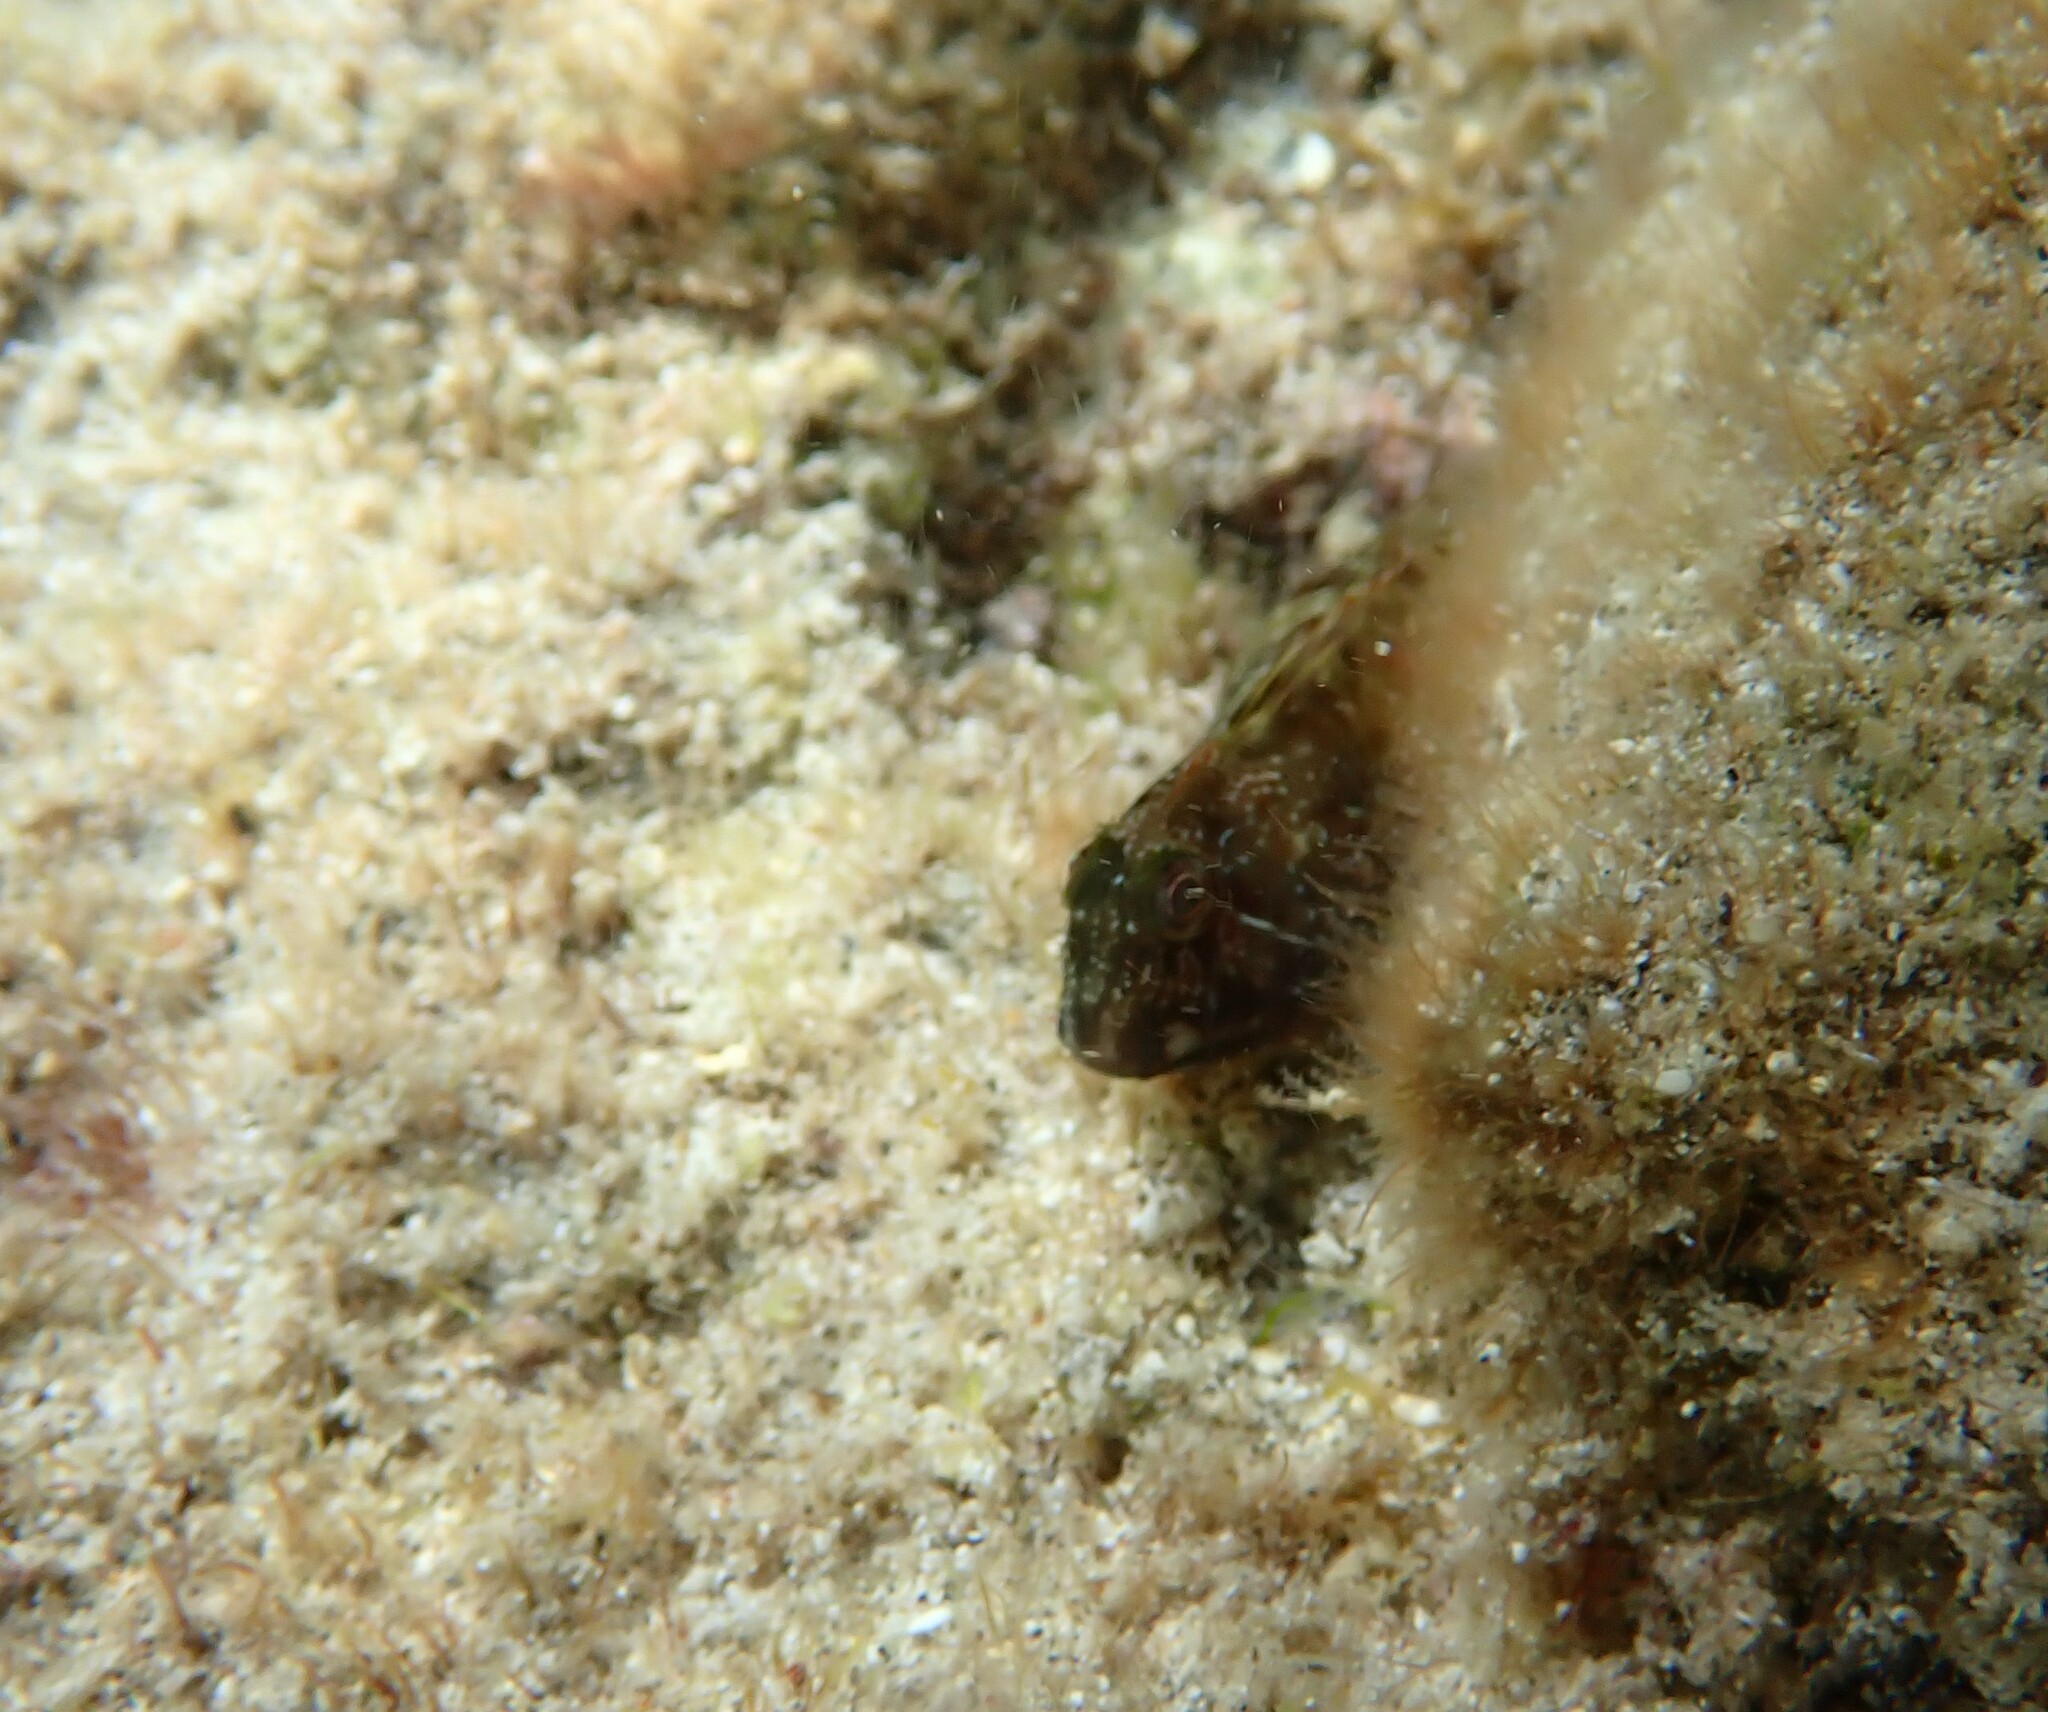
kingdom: Animalia
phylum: Chordata
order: Perciformes
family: Blenniidae
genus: Scartella
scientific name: Scartella cristata
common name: Molly miller
